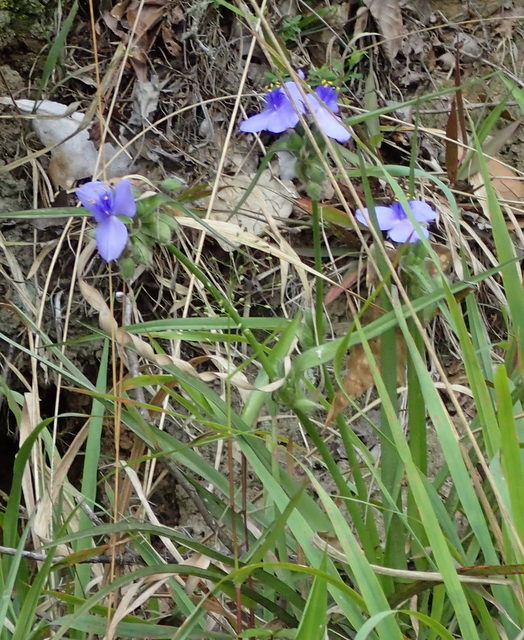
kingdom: Plantae
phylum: Tracheophyta
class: Liliopsida
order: Commelinales
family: Commelinaceae
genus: Tradescantia
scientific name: Tradescantia ohiensis
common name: Ohio spiderwort
